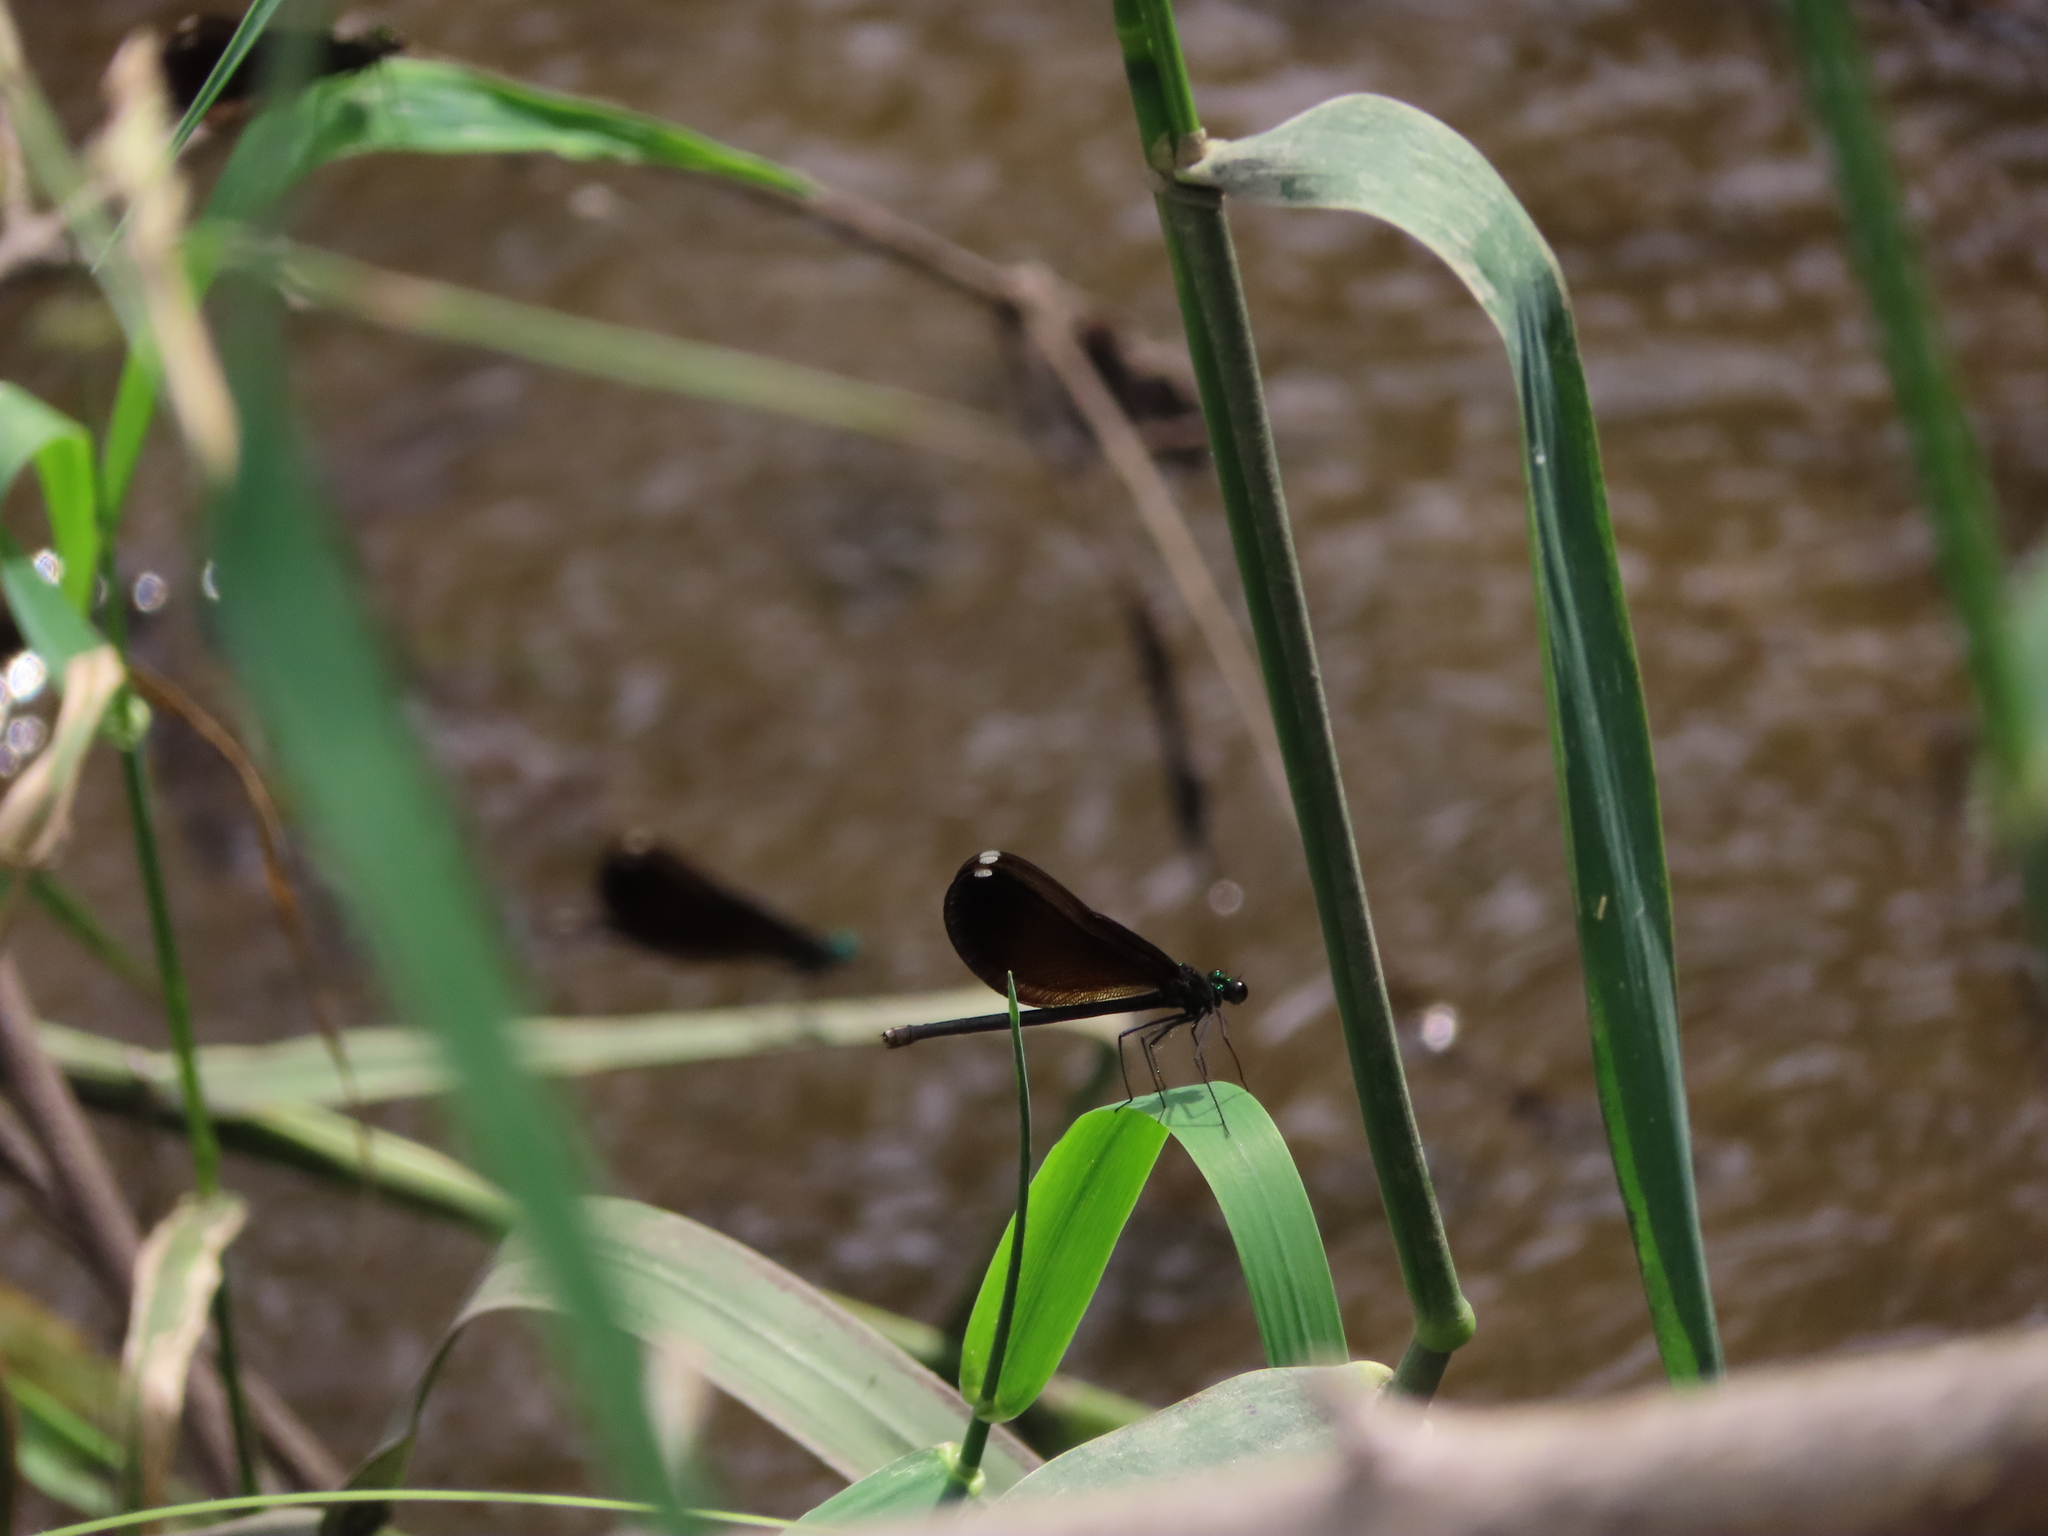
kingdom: Animalia
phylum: Arthropoda
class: Insecta
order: Odonata
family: Calopterygidae
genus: Calopteryx
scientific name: Calopteryx maculata
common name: Ebony jewelwing
